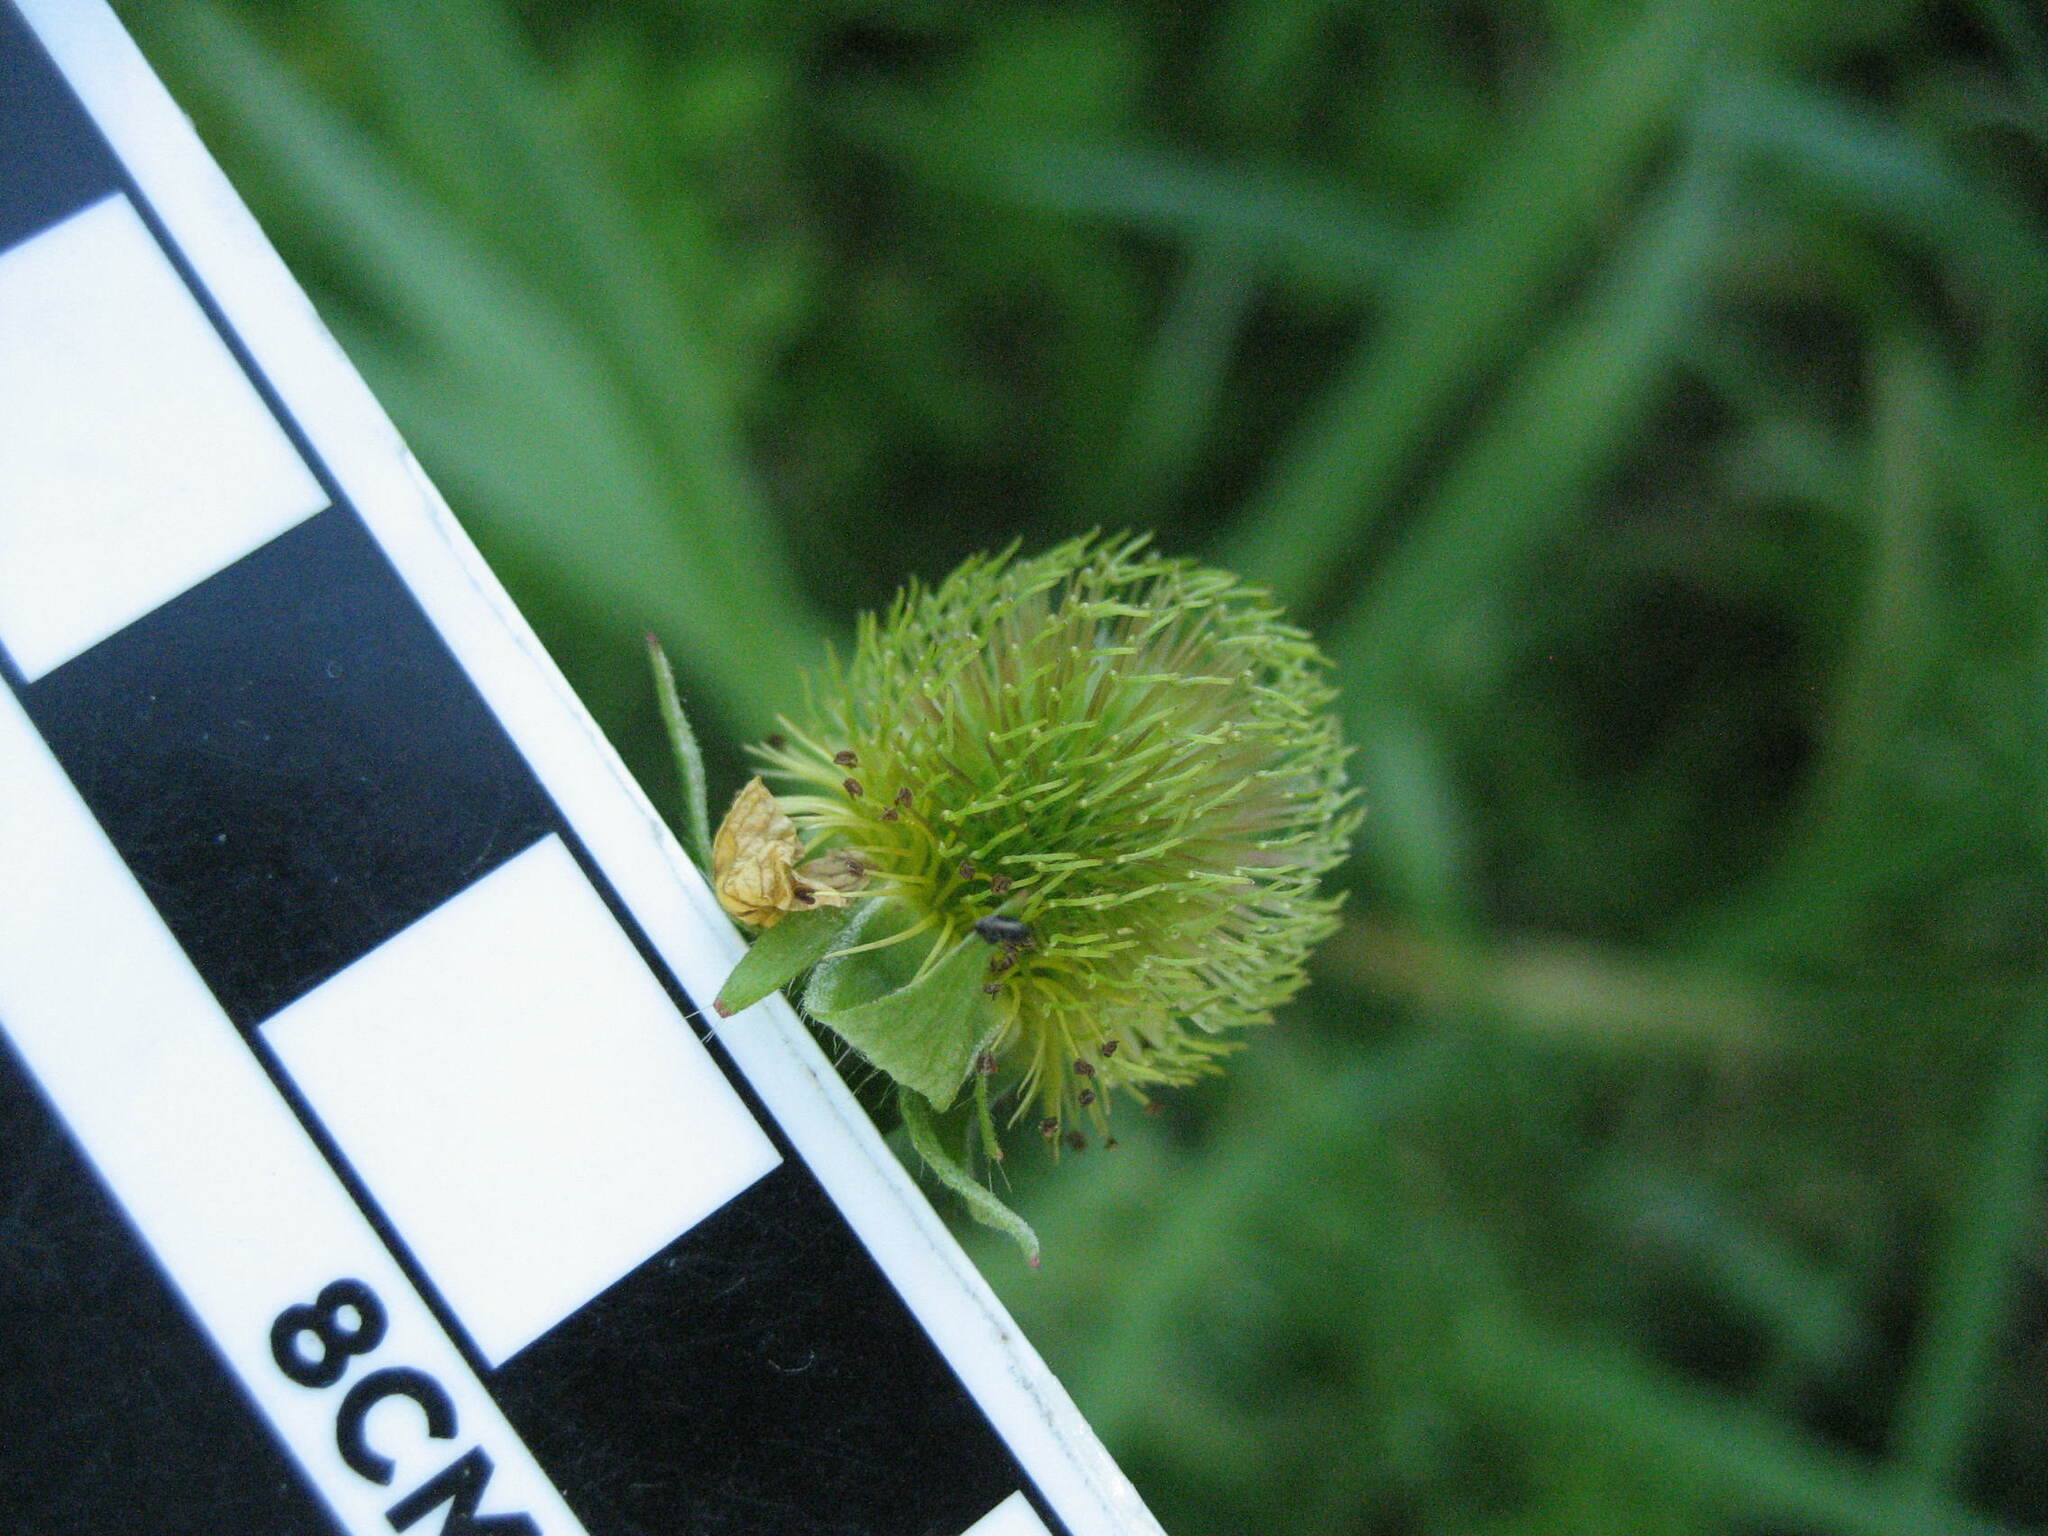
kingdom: Plantae
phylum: Tracheophyta
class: Magnoliopsida
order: Rosales
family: Rosaceae
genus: Geum
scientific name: Geum aleppicum
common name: Yellow avens
